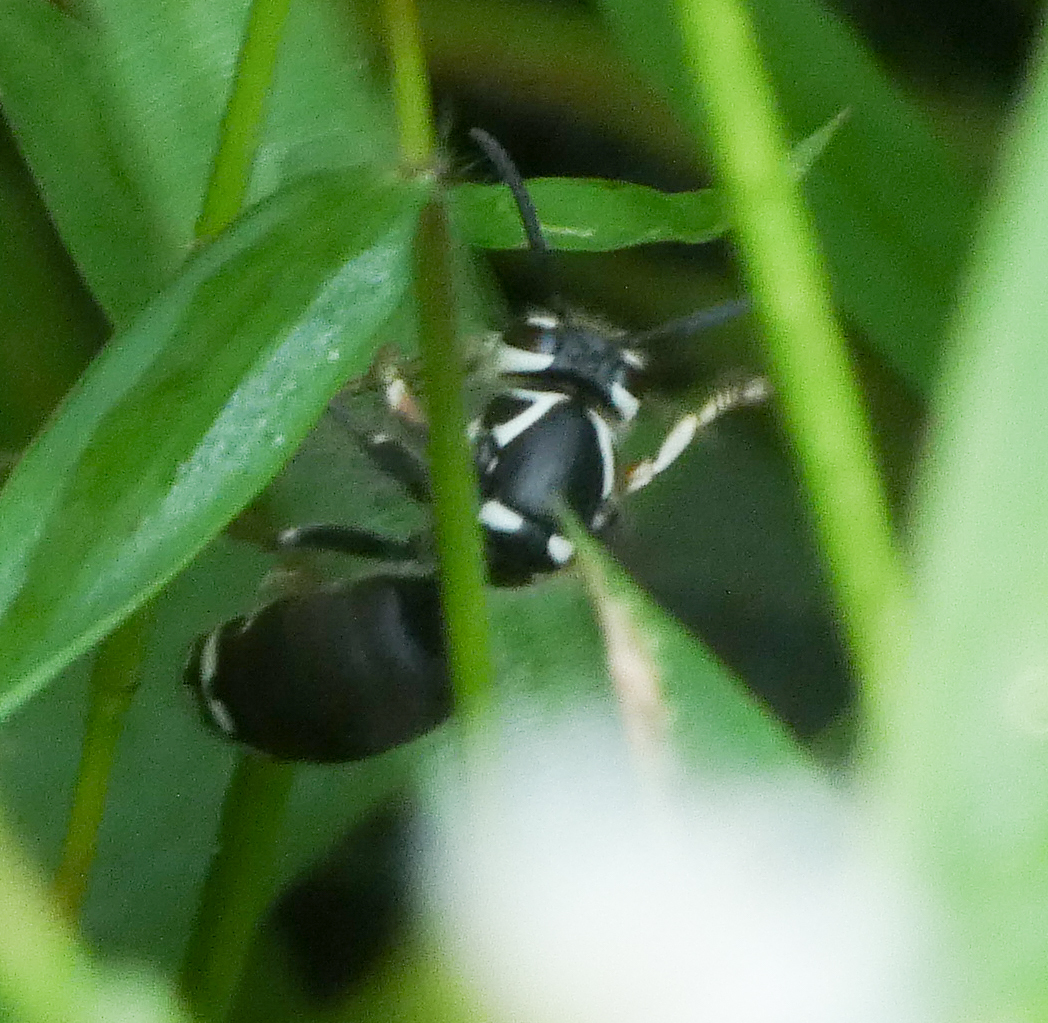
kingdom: Animalia
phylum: Arthropoda
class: Insecta
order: Hymenoptera
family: Vespidae
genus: Dolichovespula
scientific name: Dolichovespula maculata
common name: Bald-faced hornet
